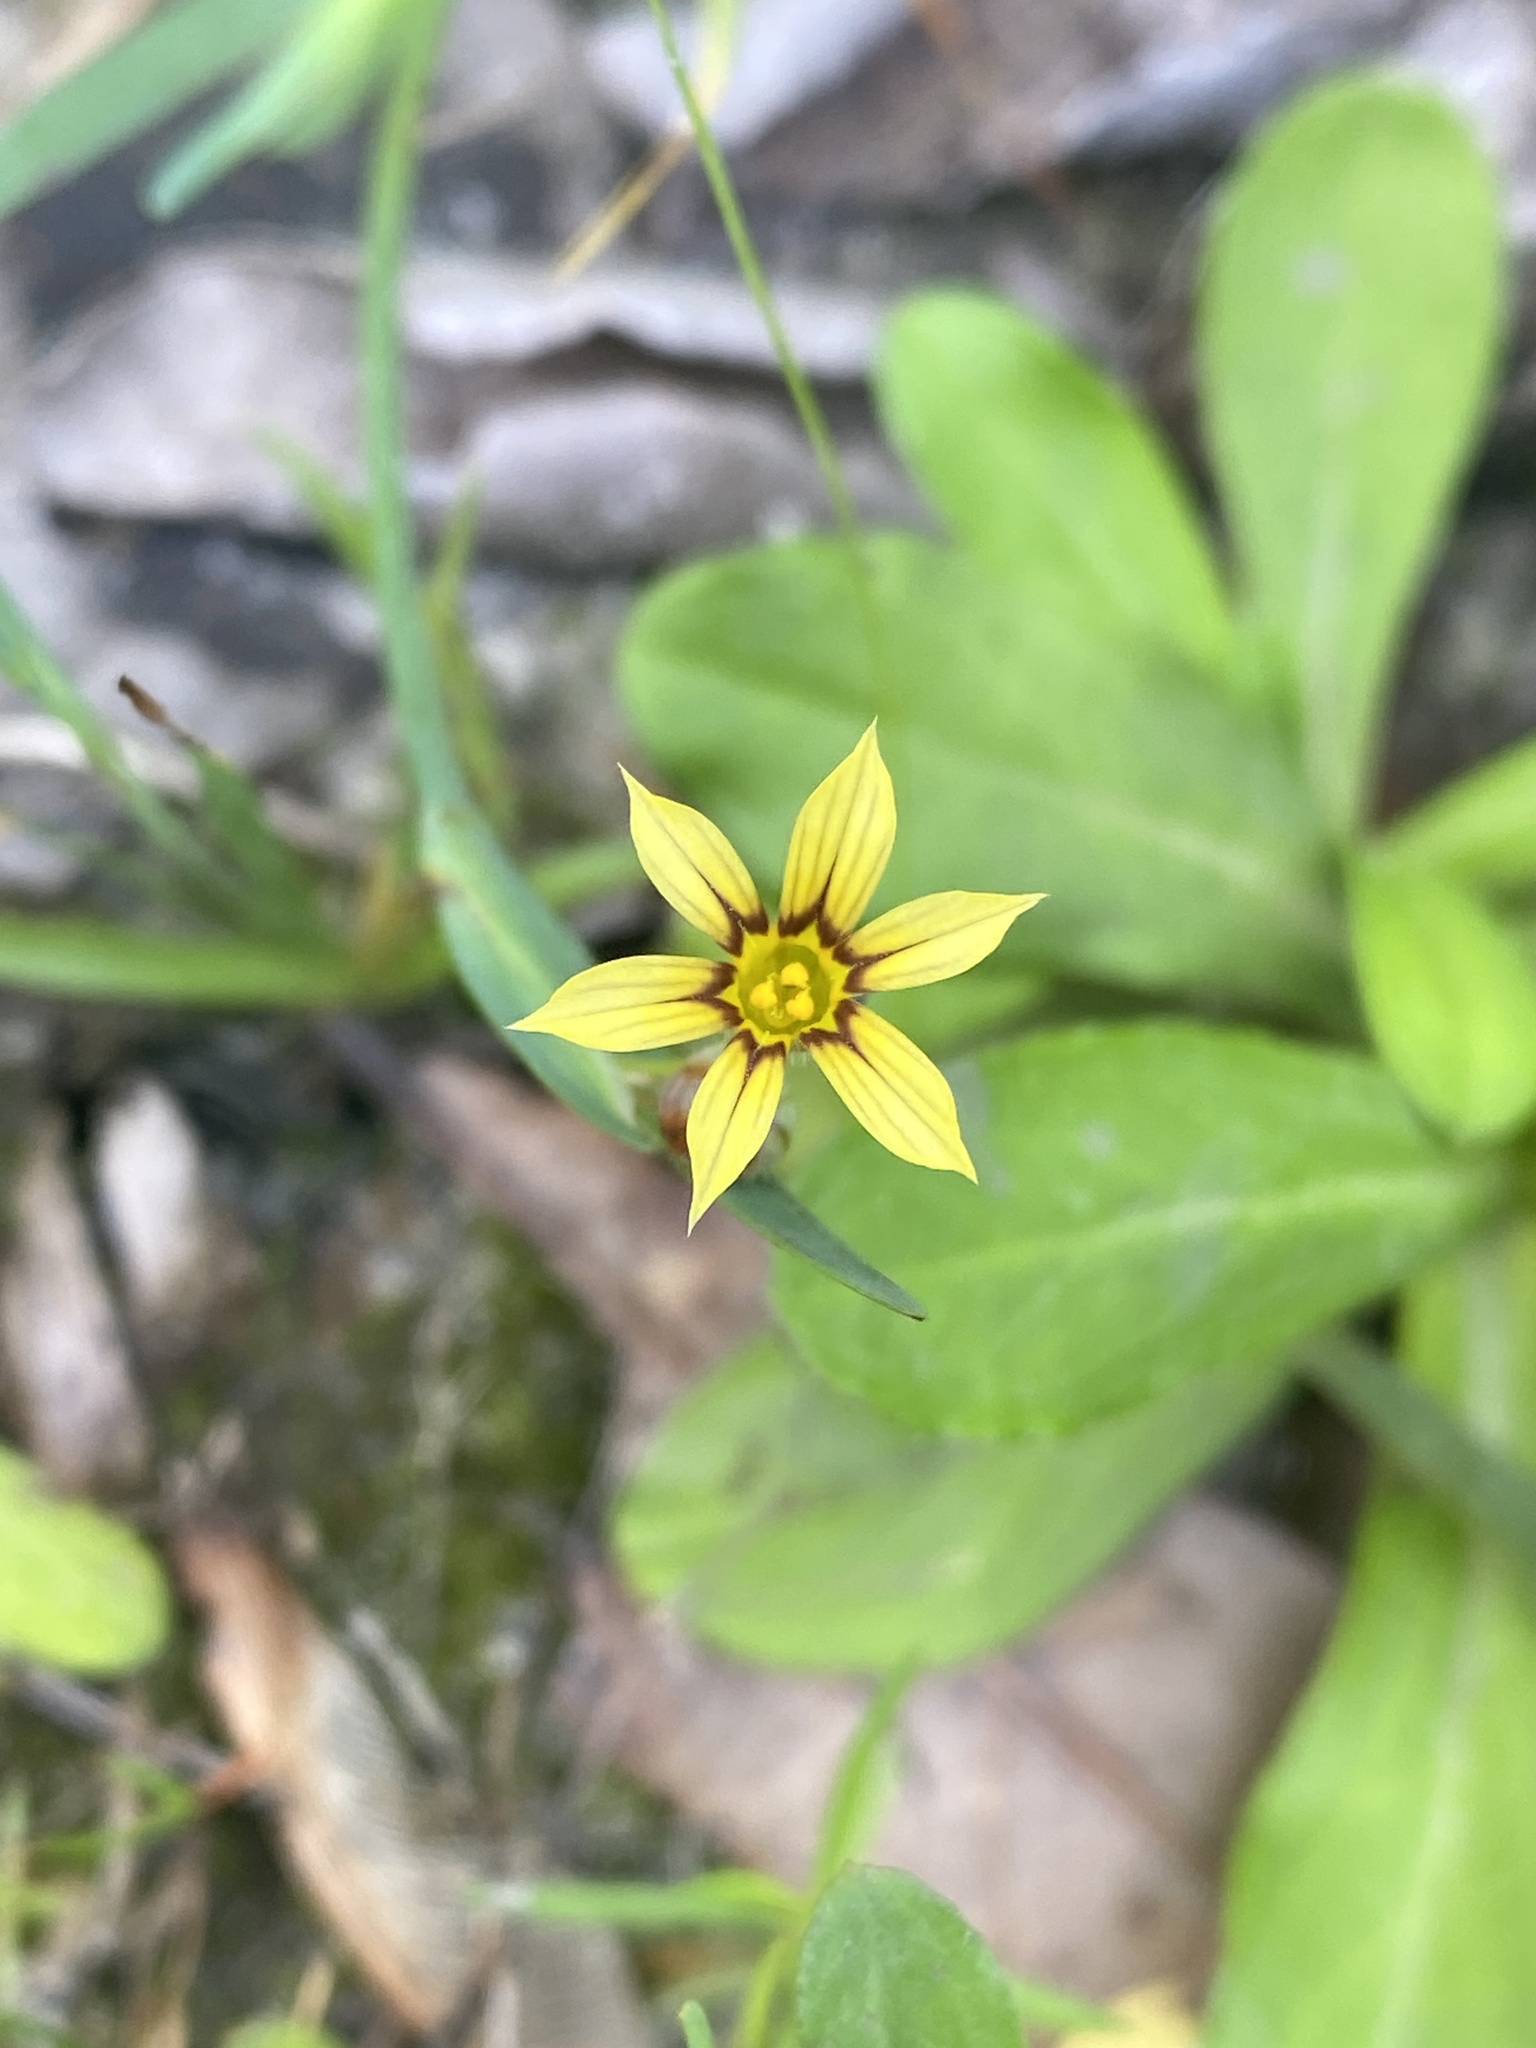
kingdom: Plantae
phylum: Tracheophyta
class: Liliopsida
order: Asparagales
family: Iridaceae
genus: Sisyrinchium
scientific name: Sisyrinchium micranthum
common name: Bermuda pigroot
